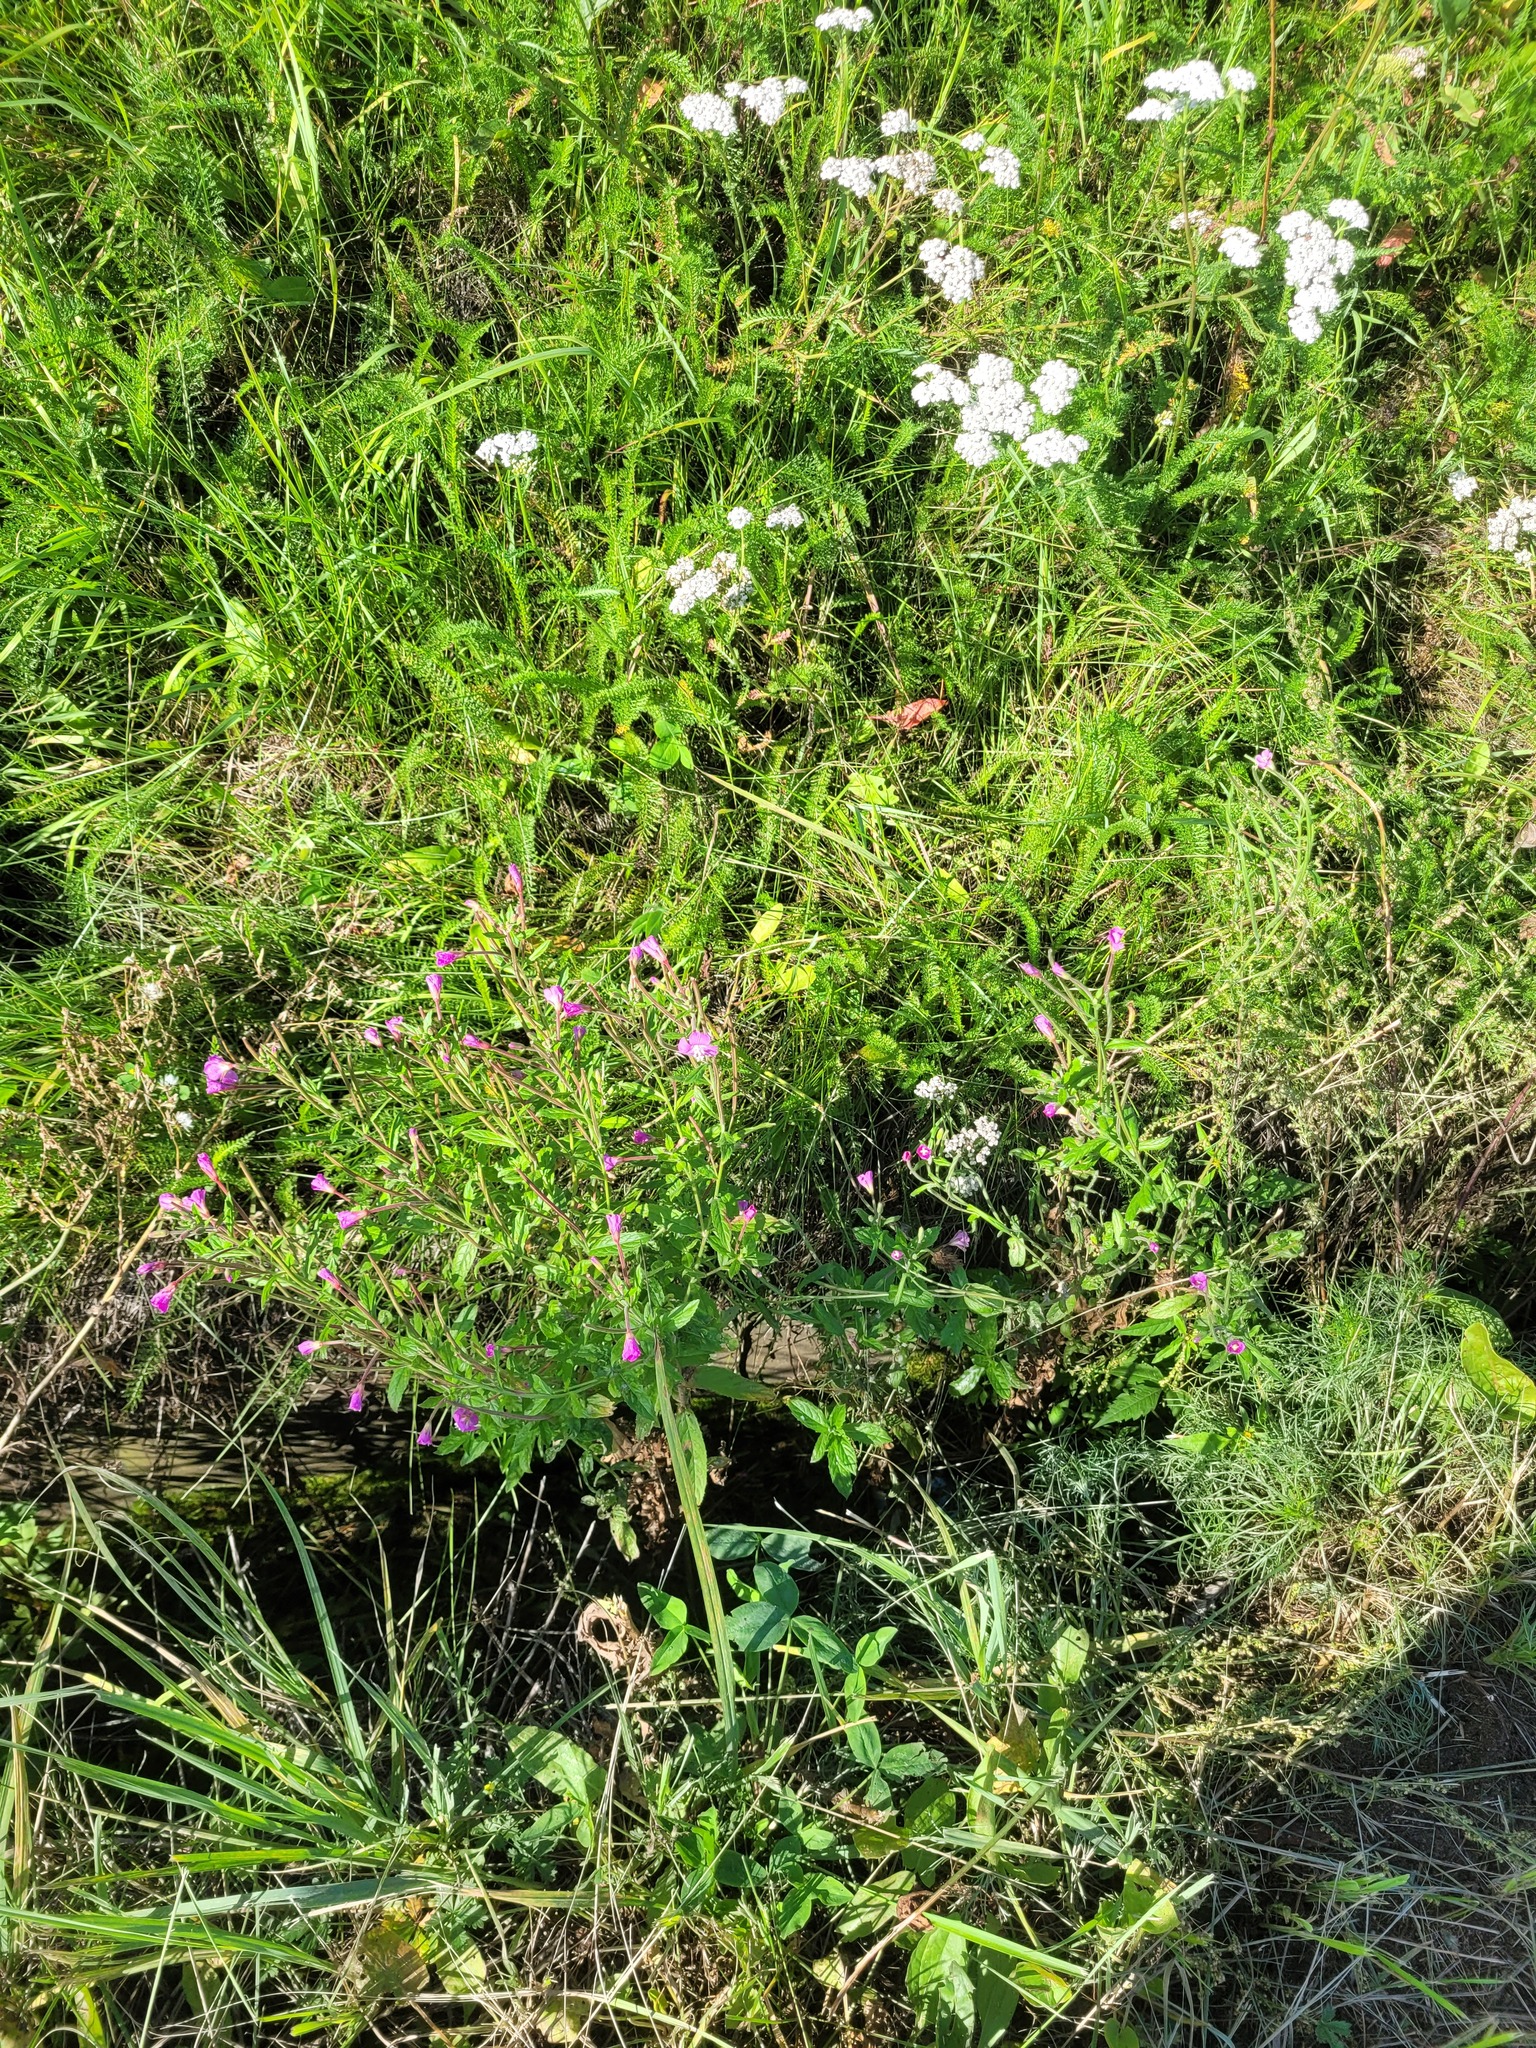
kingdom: Plantae
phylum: Tracheophyta
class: Magnoliopsida
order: Myrtales
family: Onagraceae
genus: Epilobium
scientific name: Epilobium hirsutum
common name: Great willowherb
